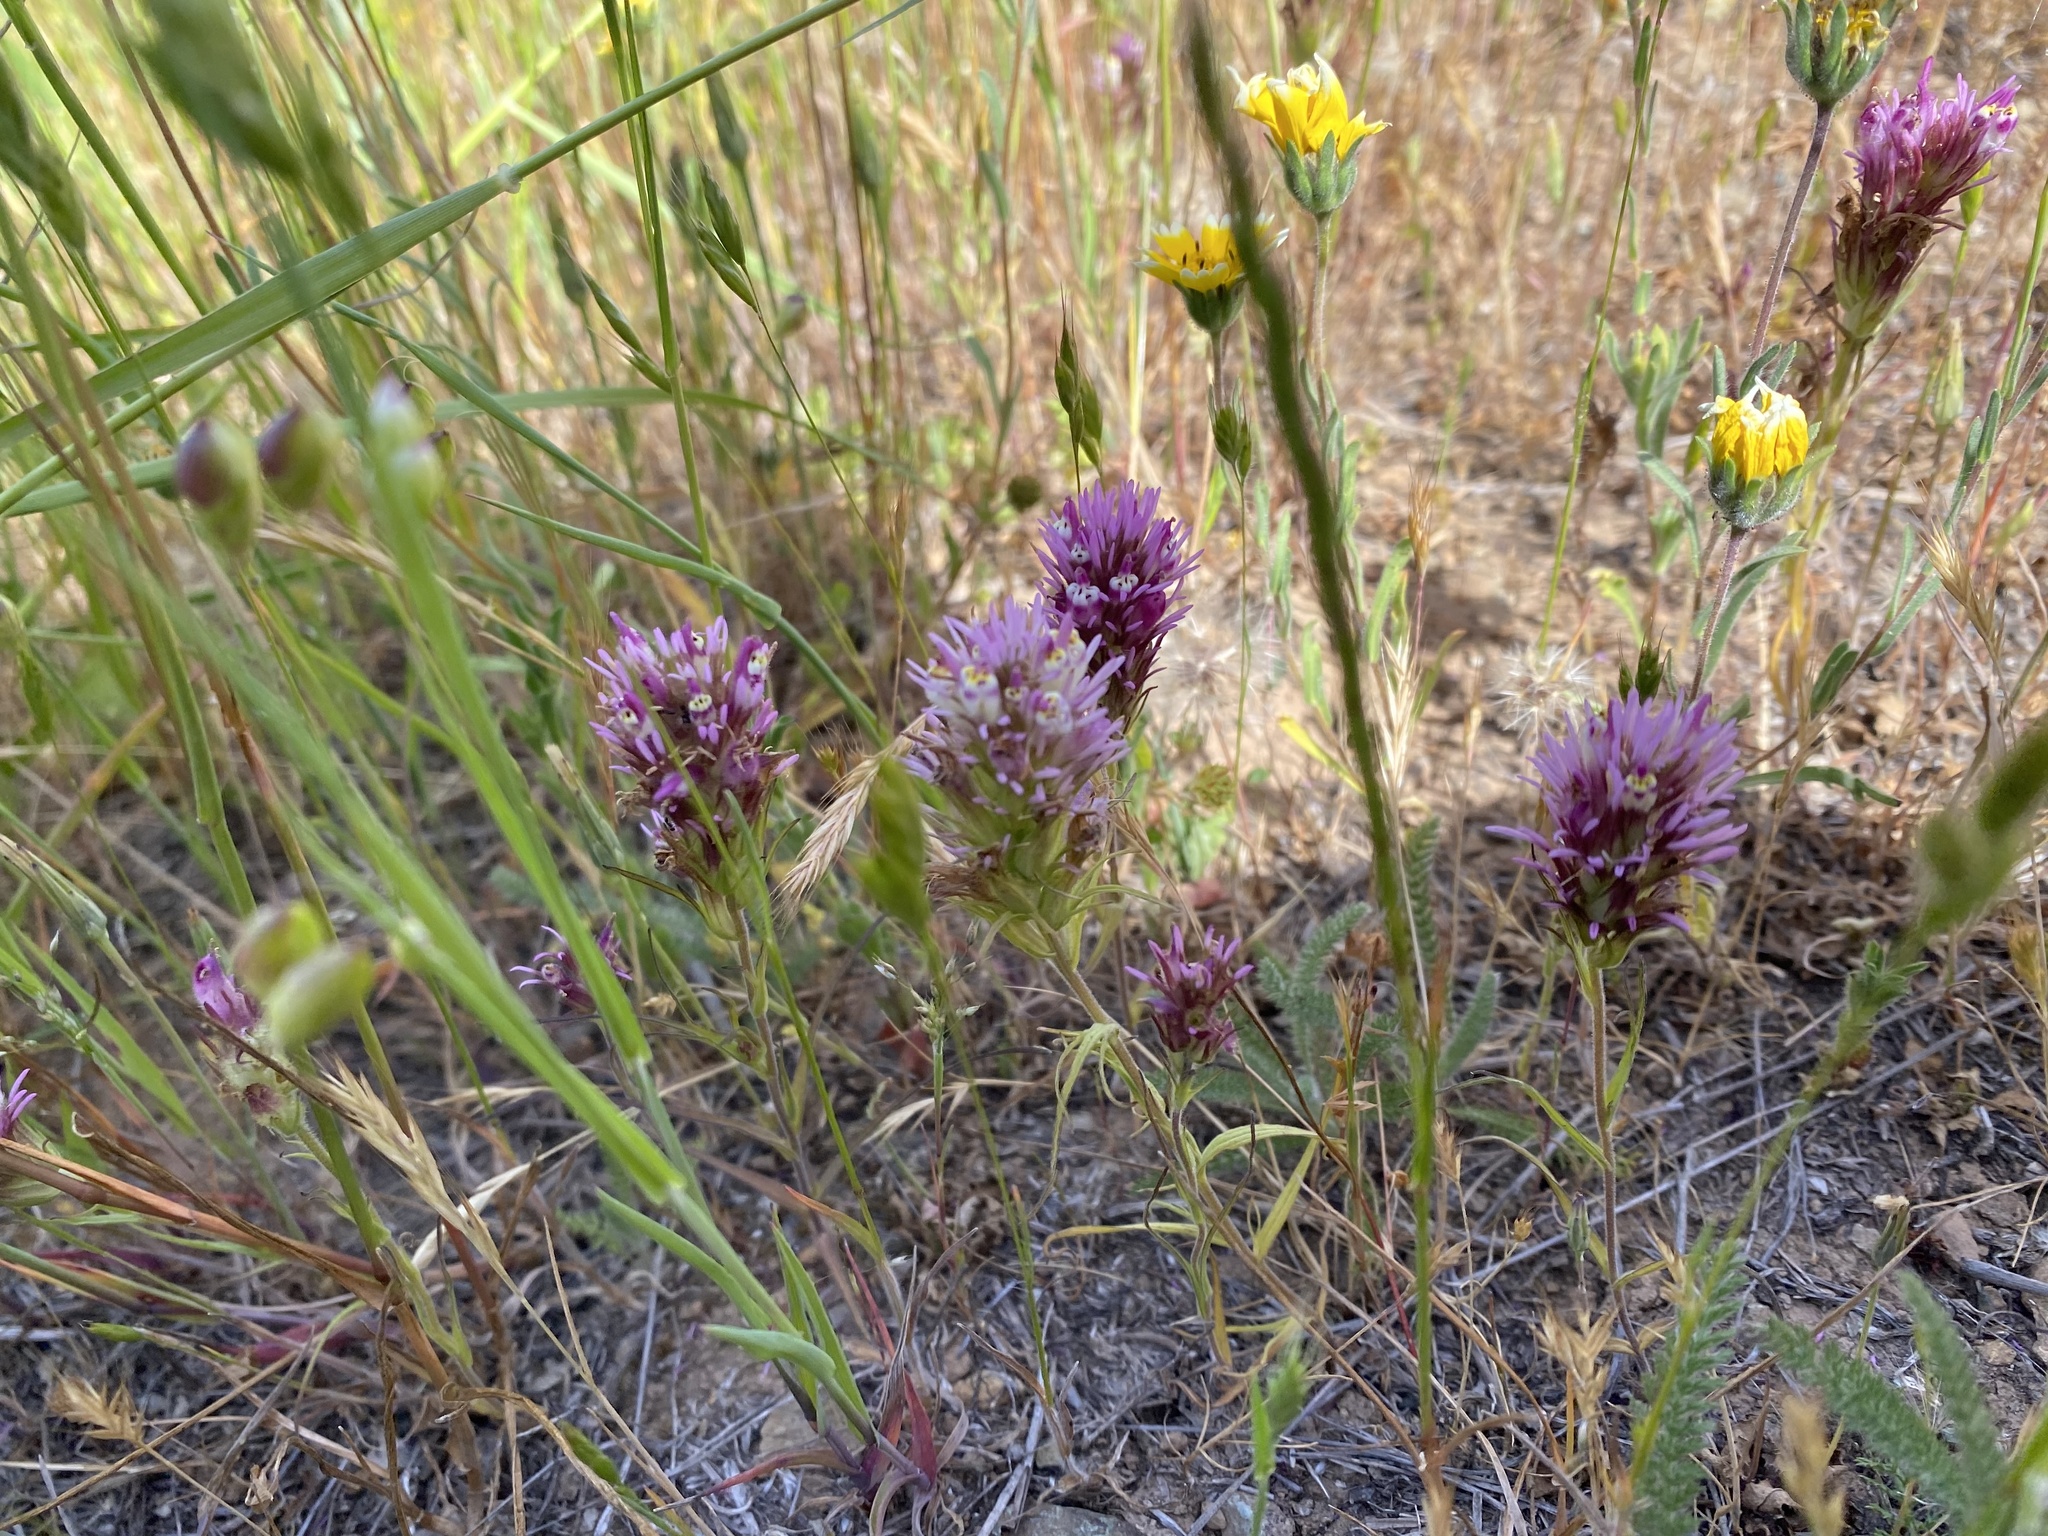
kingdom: Plantae
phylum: Tracheophyta
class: Magnoliopsida
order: Lamiales
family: Orobanchaceae
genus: Castilleja
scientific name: Castilleja densiflora
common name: Dense-flower indian paintbrush
